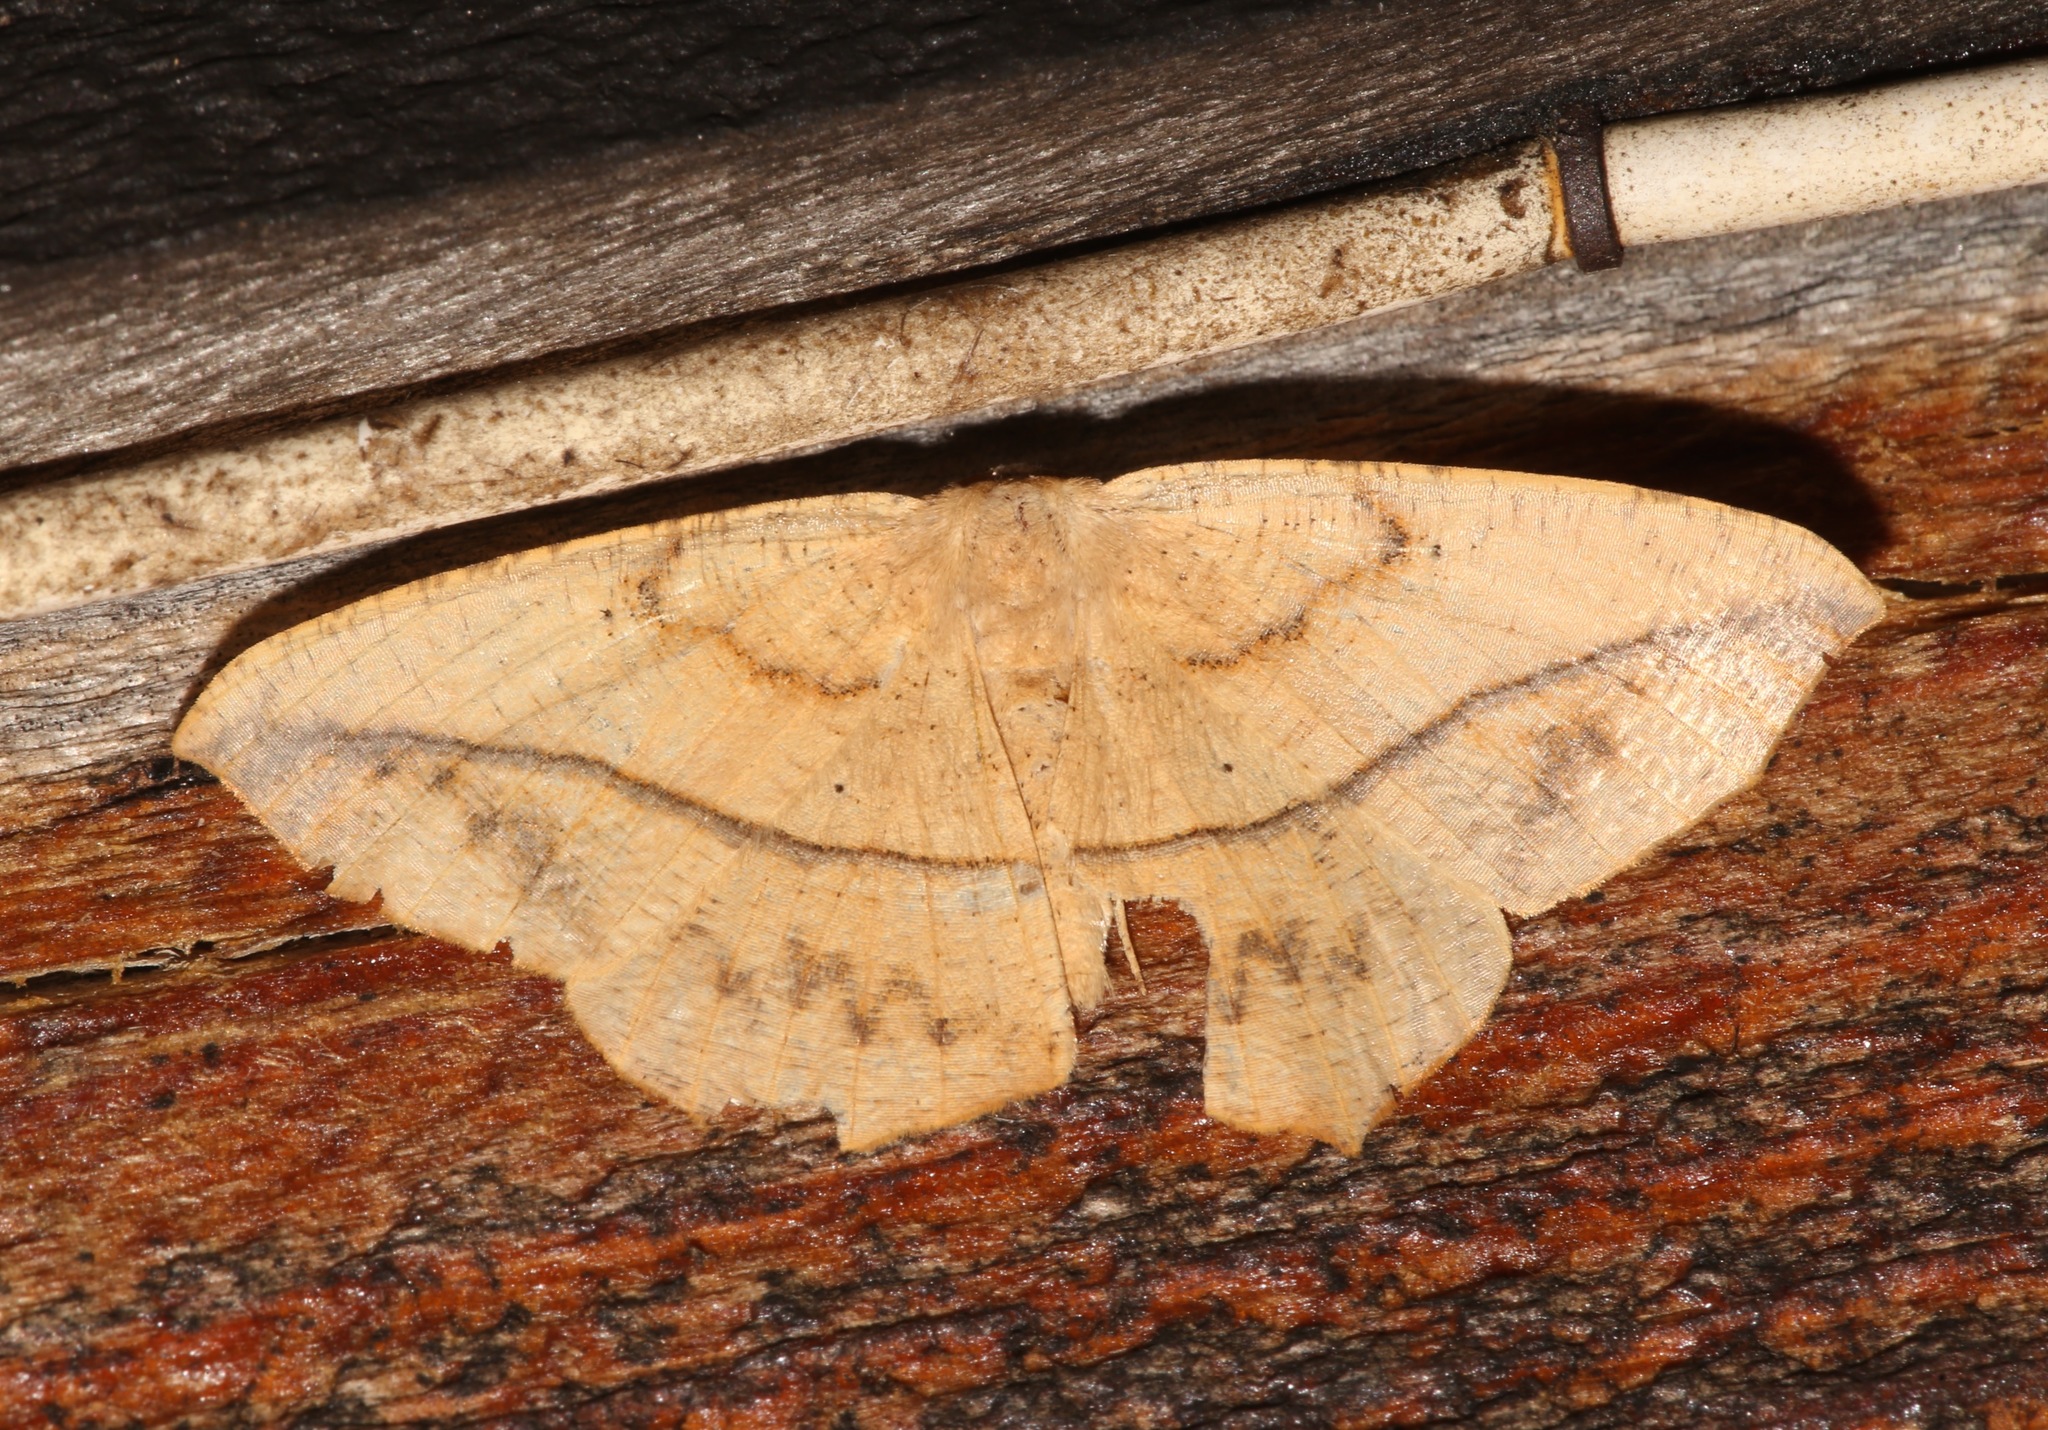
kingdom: Animalia
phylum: Arthropoda
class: Insecta
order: Lepidoptera
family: Geometridae
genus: Prochoerodes
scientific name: Prochoerodes lineola
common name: Large maple spanworm
